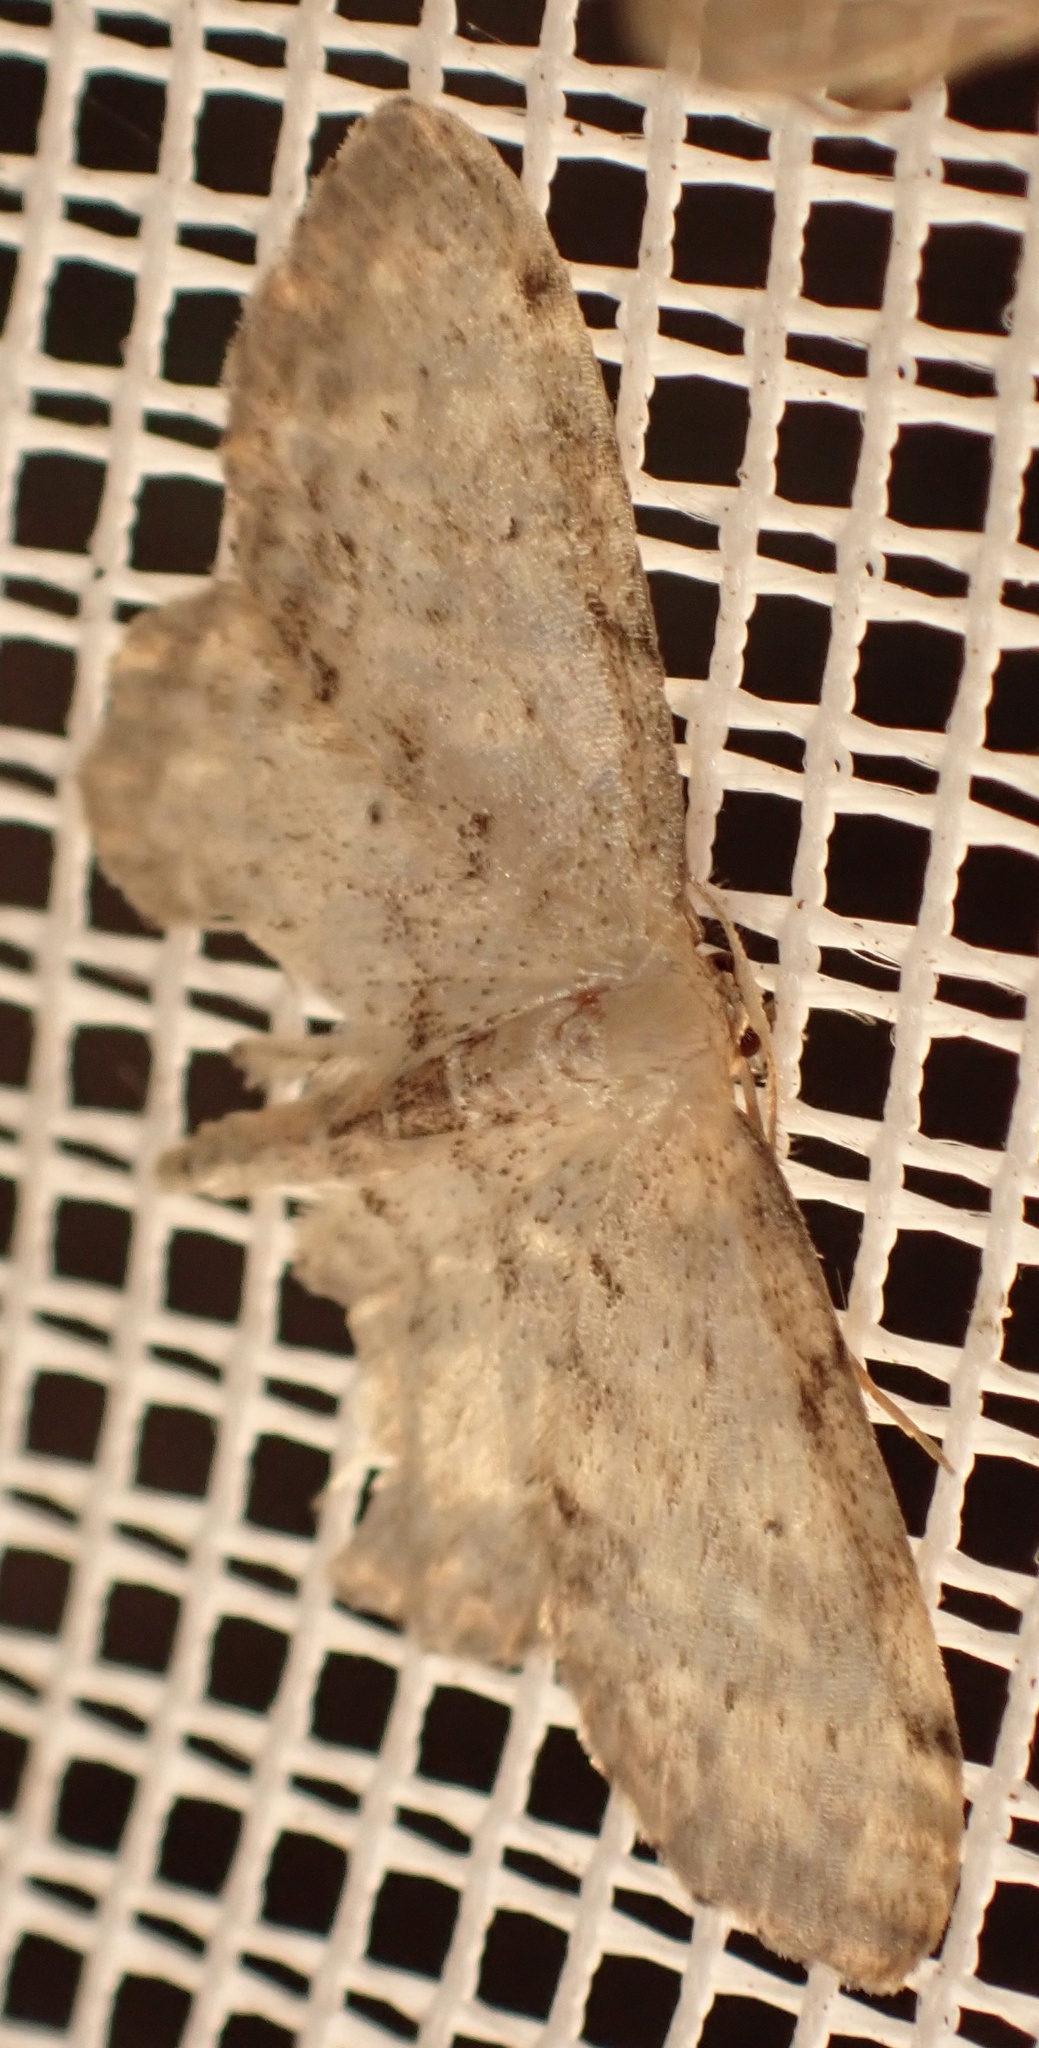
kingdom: Animalia
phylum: Arthropoda
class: Insecta
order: Lepidoptera
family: Geometridae
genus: Idaea
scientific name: Idaea dimidiata
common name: Single-dotted wave
